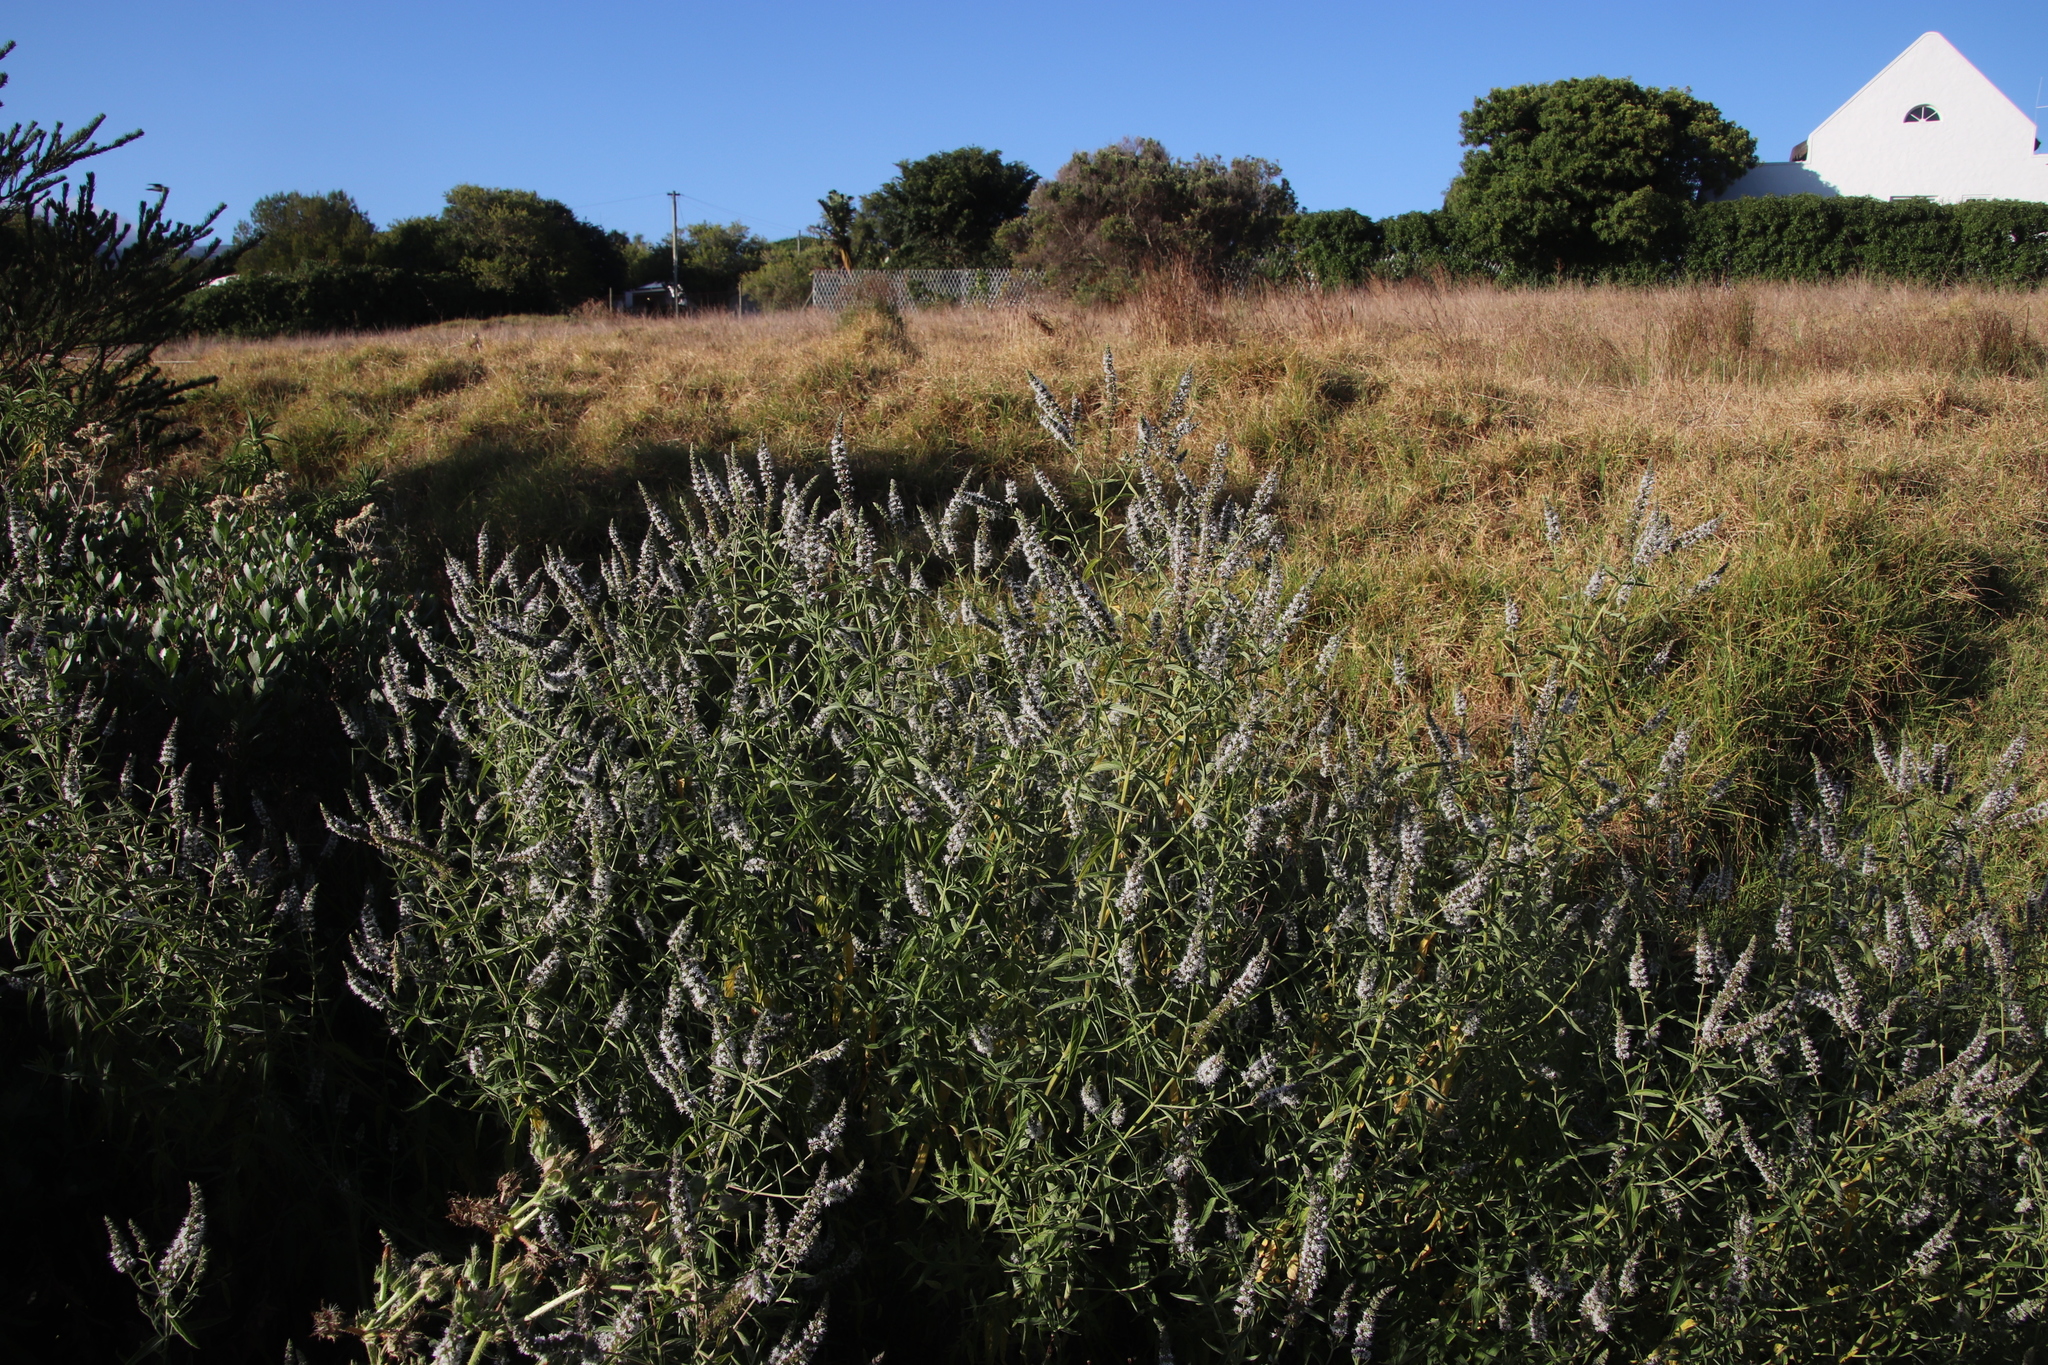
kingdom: Plantae
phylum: Tracheophyta
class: Magnoliopsida
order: Lamiales
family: Lamiaceae
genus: Mentha
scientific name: Mentha longifolia
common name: Horse mint
